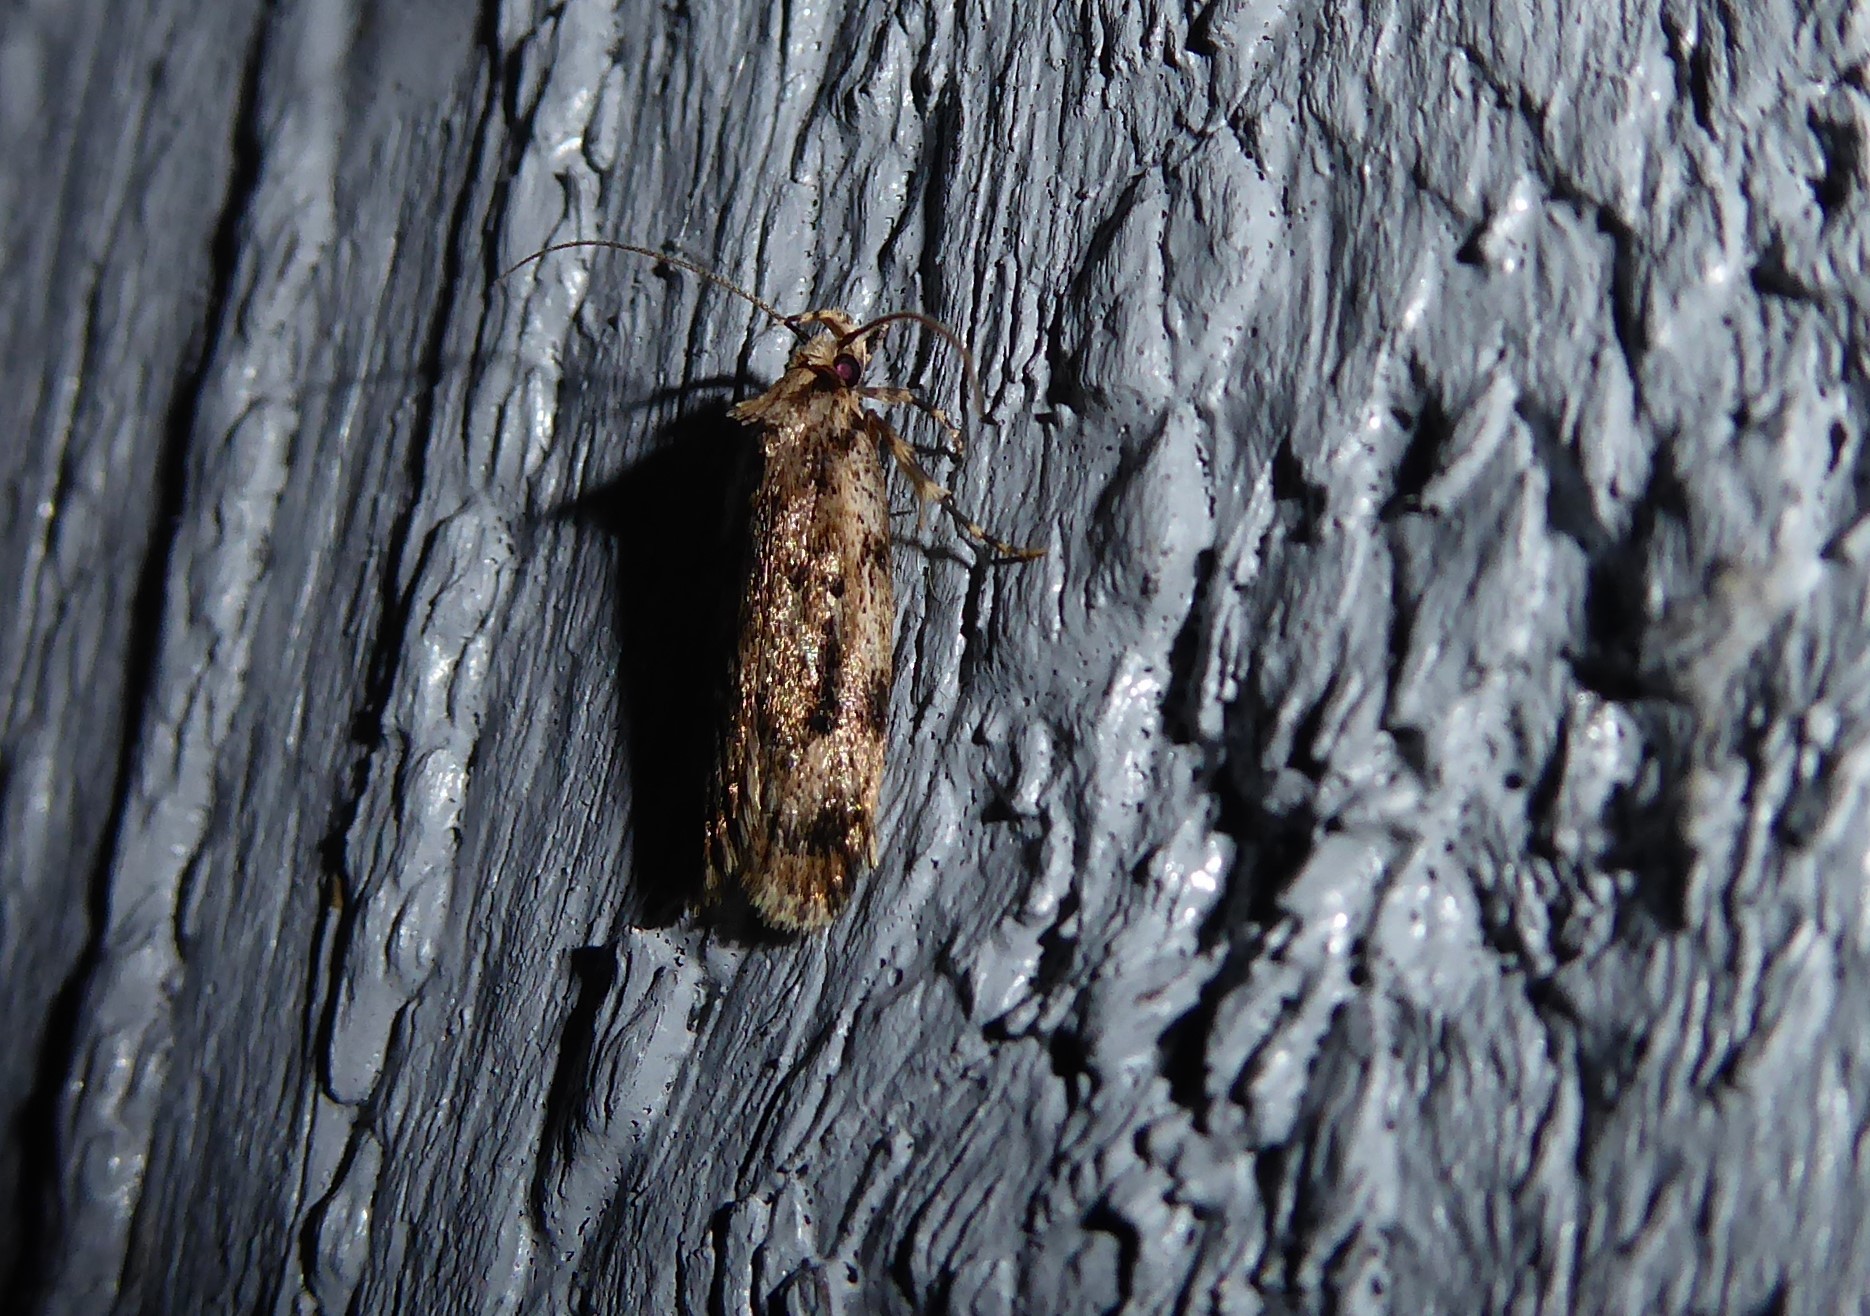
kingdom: Animalia
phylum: Arthropoda
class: Insecta
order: Lepidoptera
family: Oecophoridae
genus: Barea
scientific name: Barea exarcha
